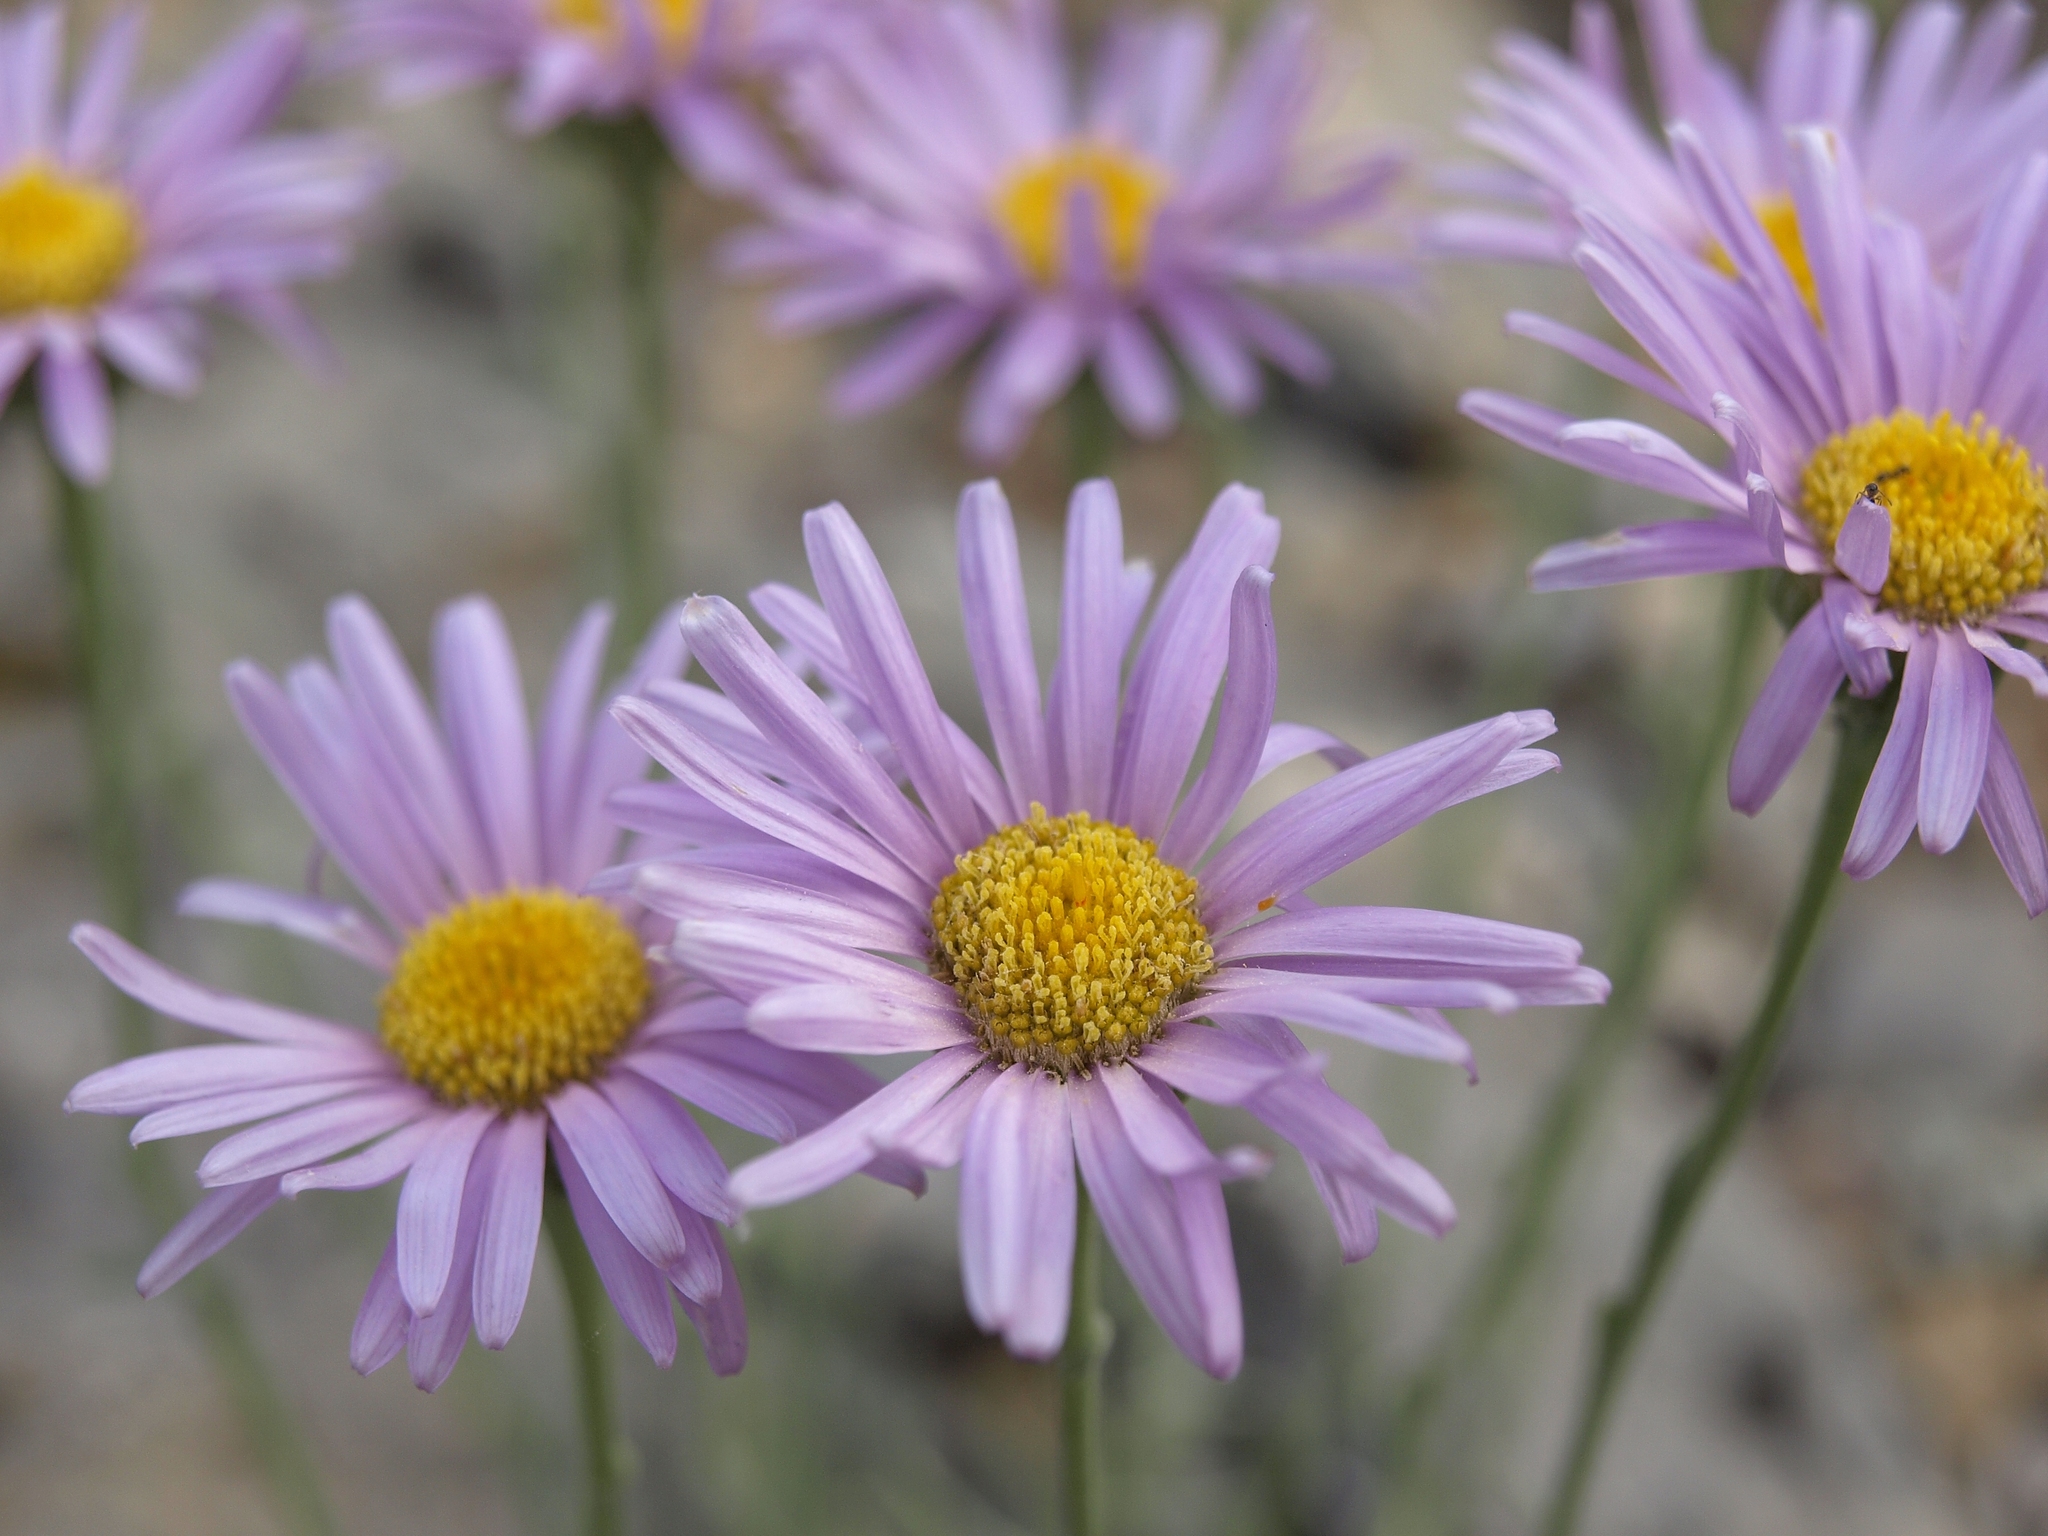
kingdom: Plantae
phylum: Tracheophyta
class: Magnoliopsida
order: Asterales
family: Asteraceae
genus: Erigeron
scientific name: Erigeron argentatus
